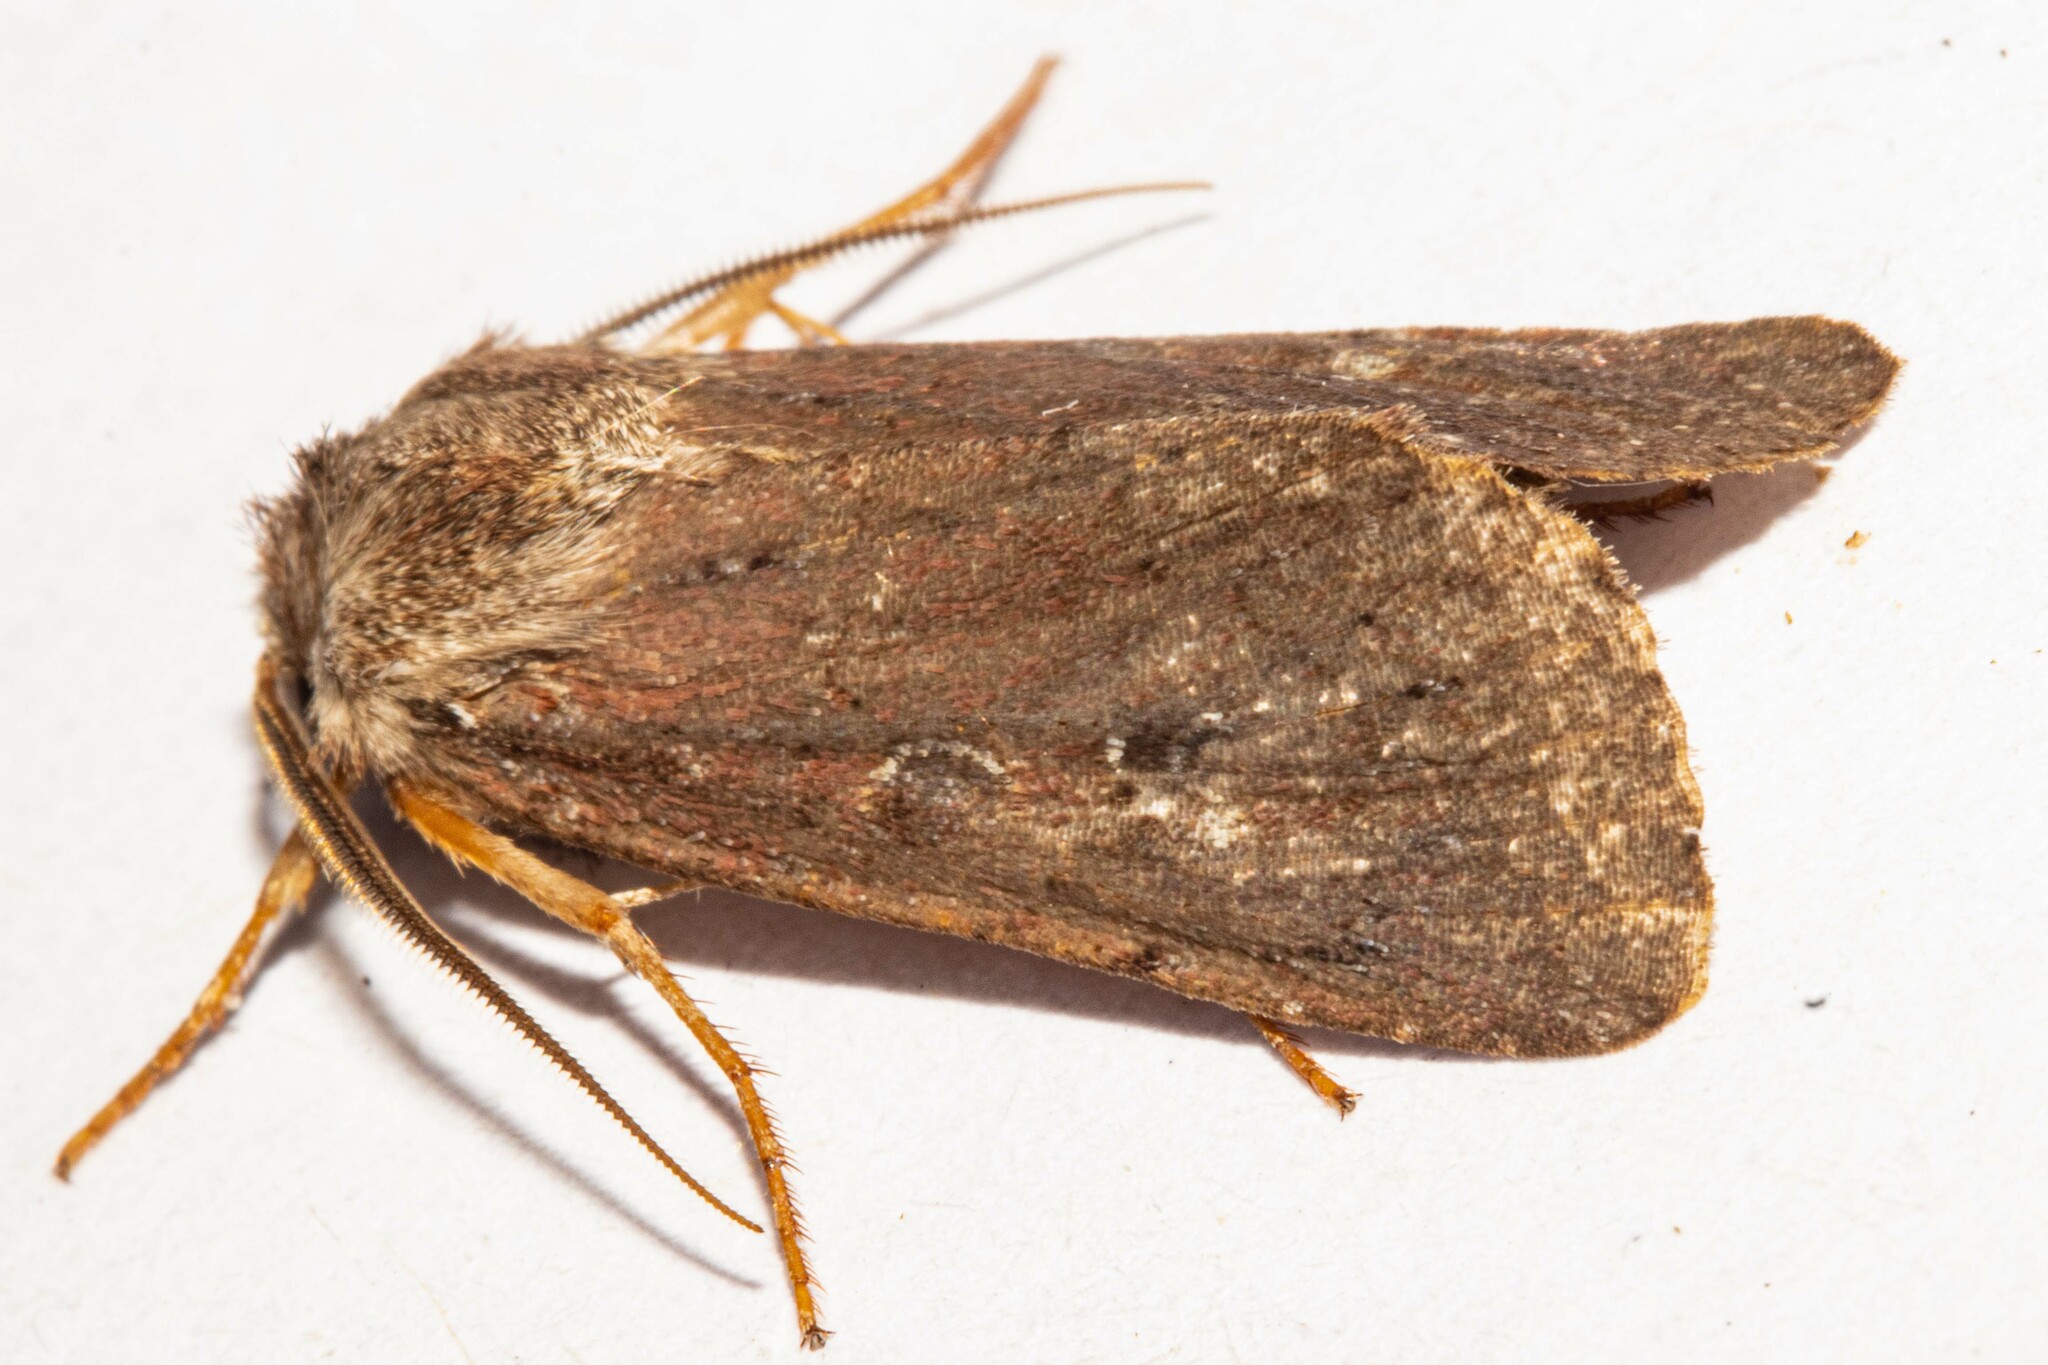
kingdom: Animalia
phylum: Arthropoda
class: Insecta
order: Lepidoptera
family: Noctuidae
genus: Ichneutica
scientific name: Ichneutica
